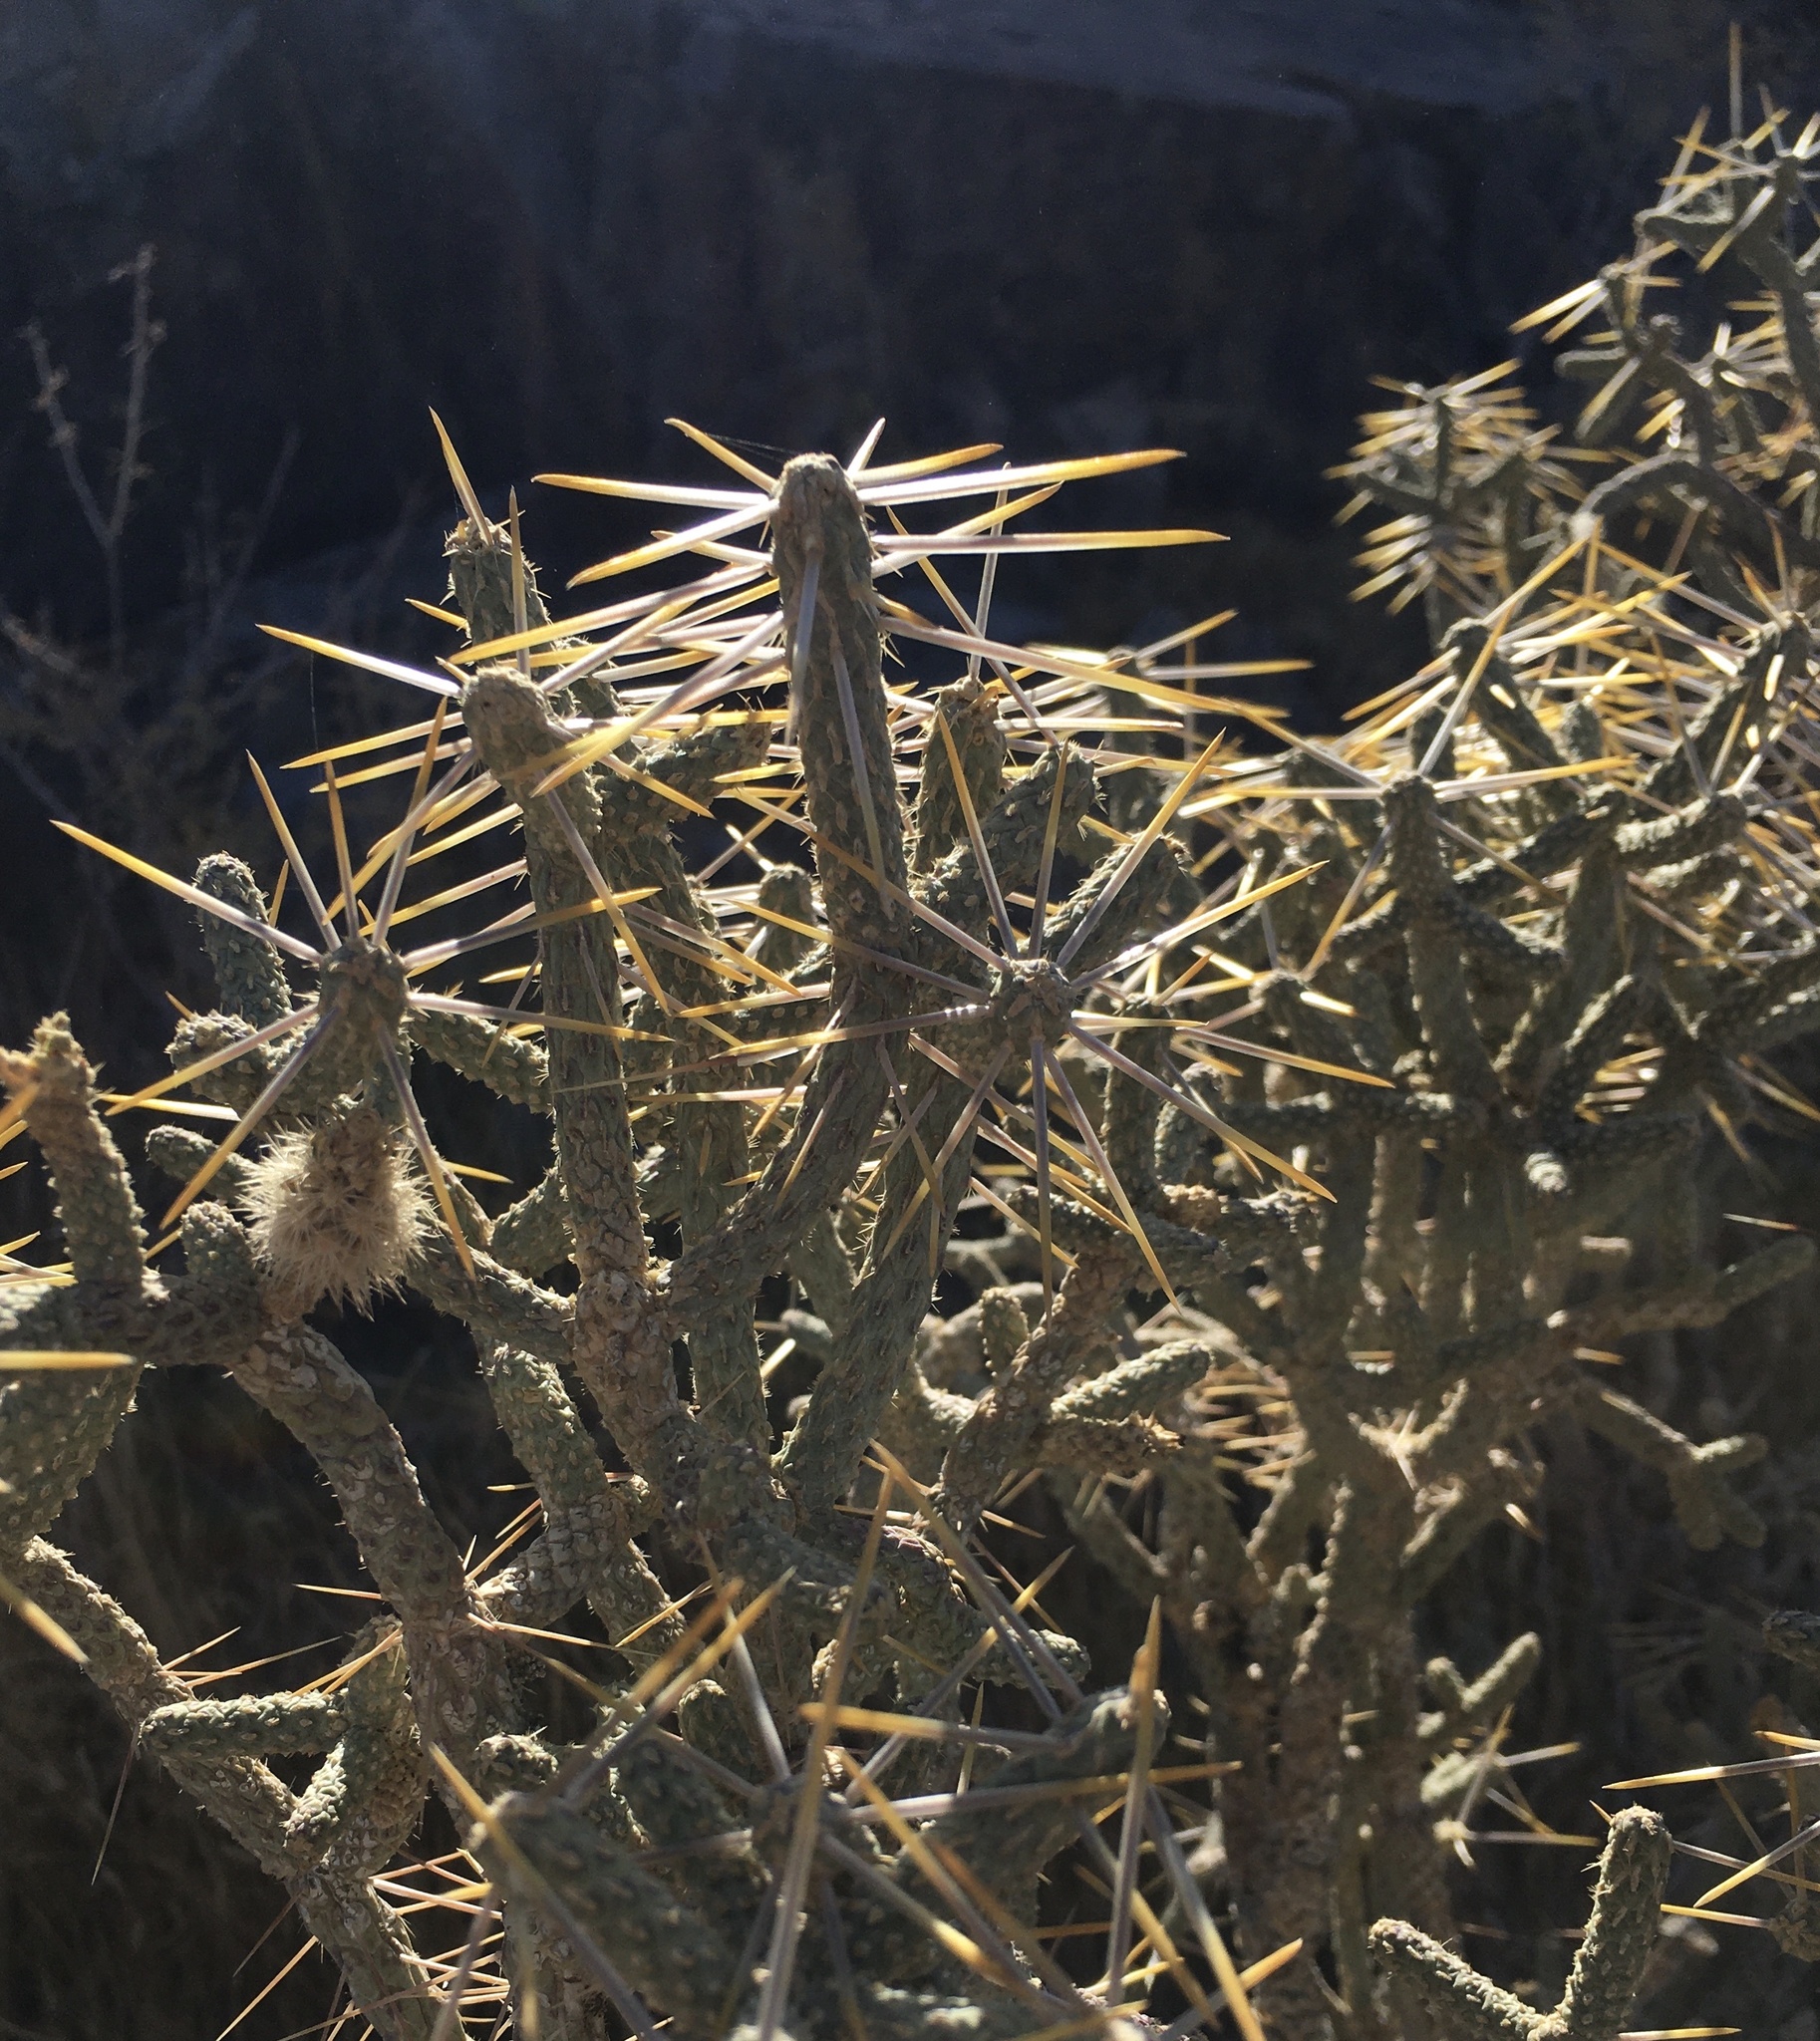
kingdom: Plantae
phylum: Tracheophyta
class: Magnoliopsida
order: Caryophyllales
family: Cactaceae
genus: Cylindropuntia
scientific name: Cylindropuntia ramosissima
